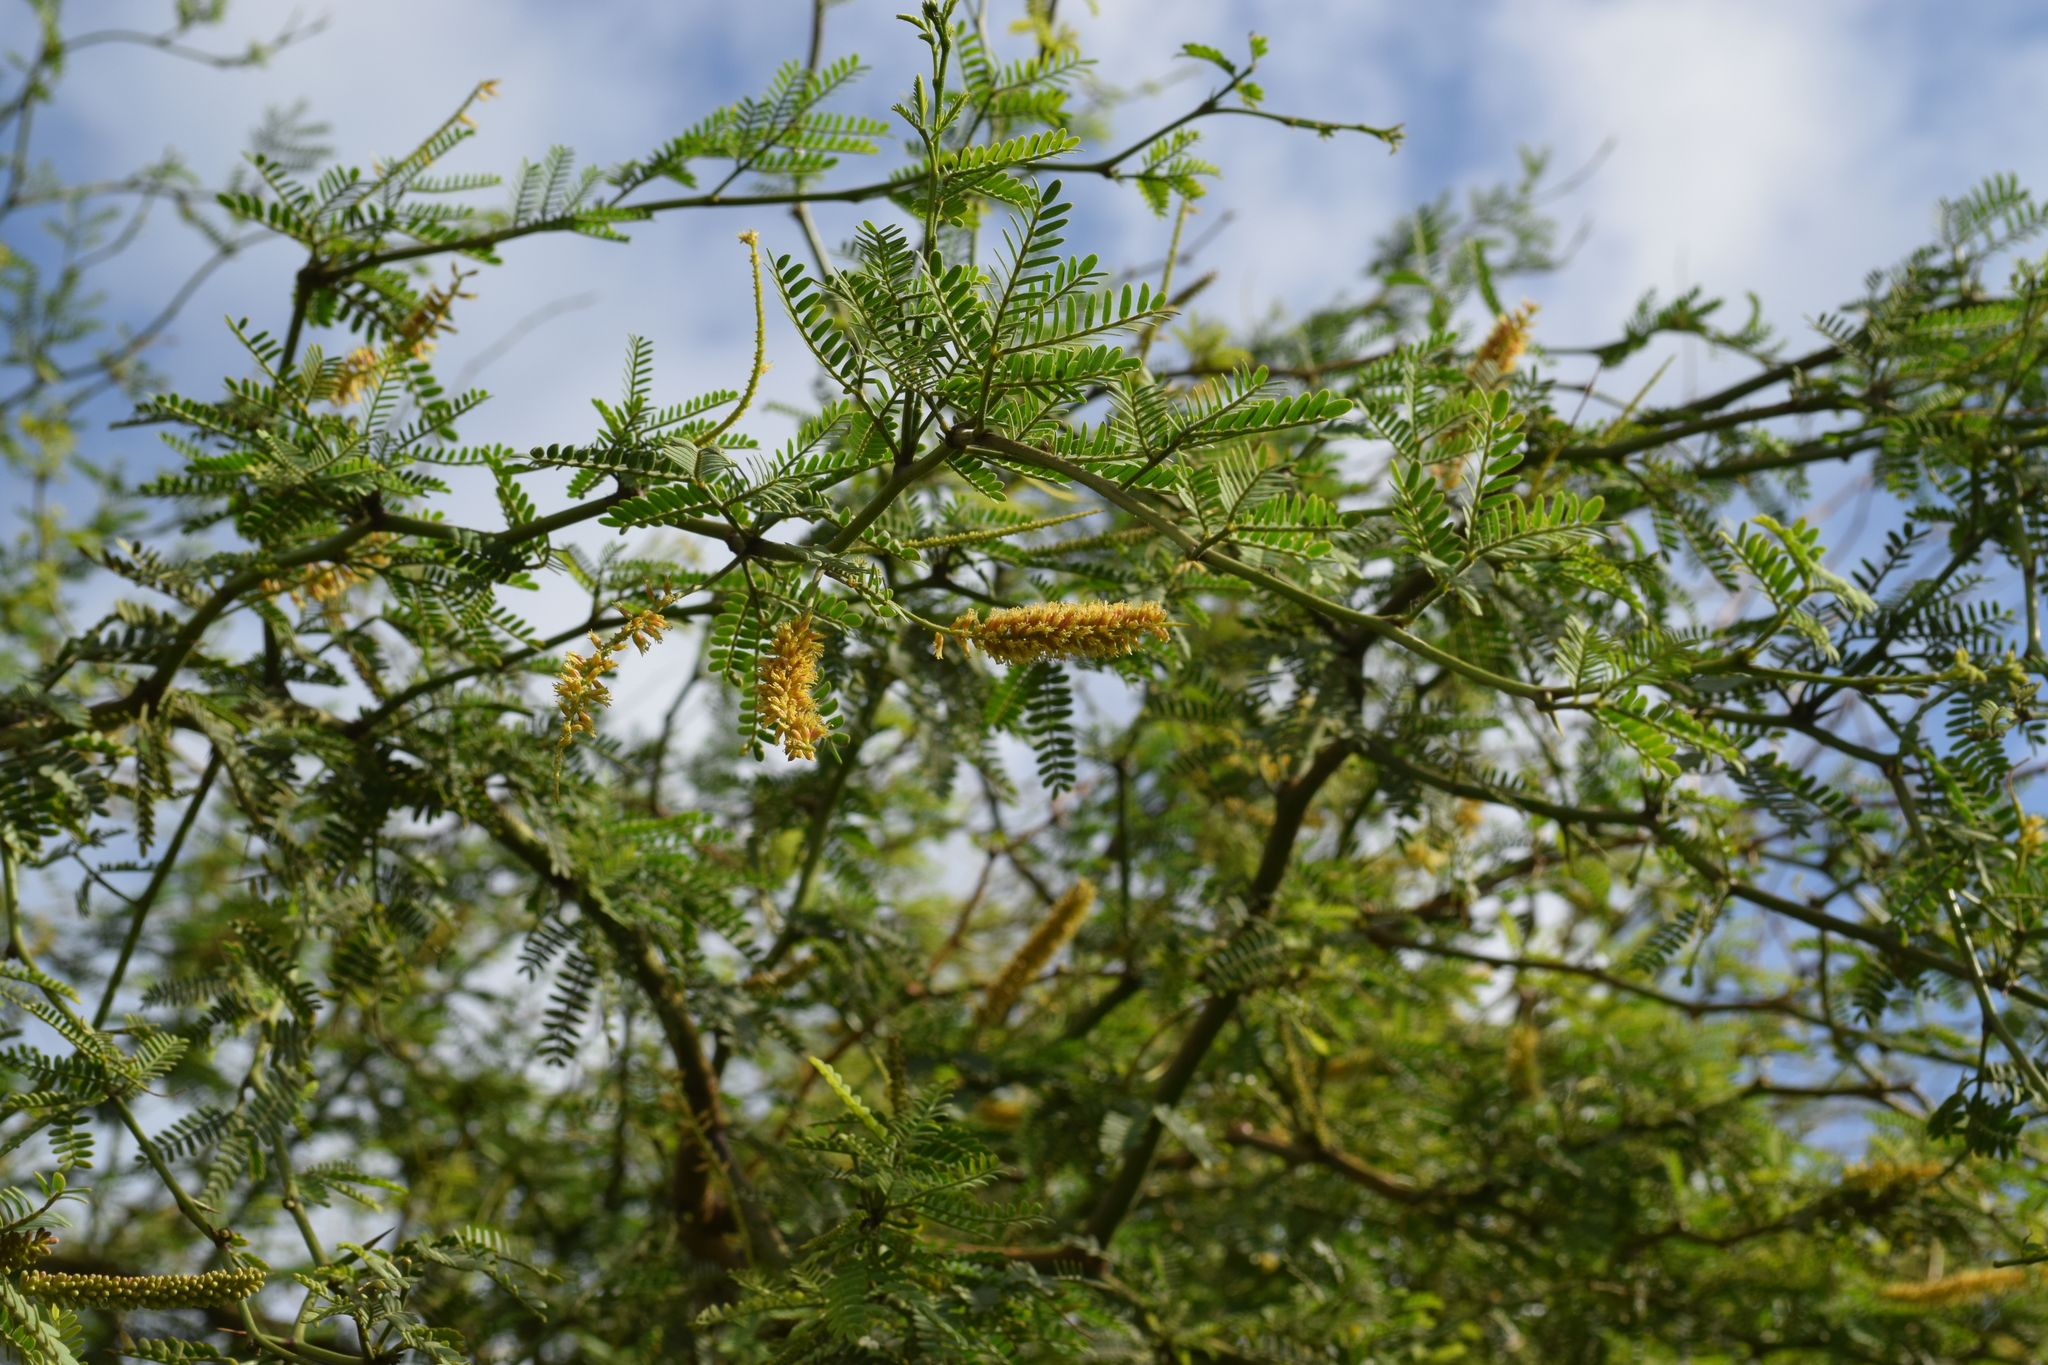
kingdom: Plantae
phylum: Tracheophyta
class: Magnoliopsida
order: Fabales
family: Fabaceae
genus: Prosopis
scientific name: Prosopis pallida
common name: Mesquite
